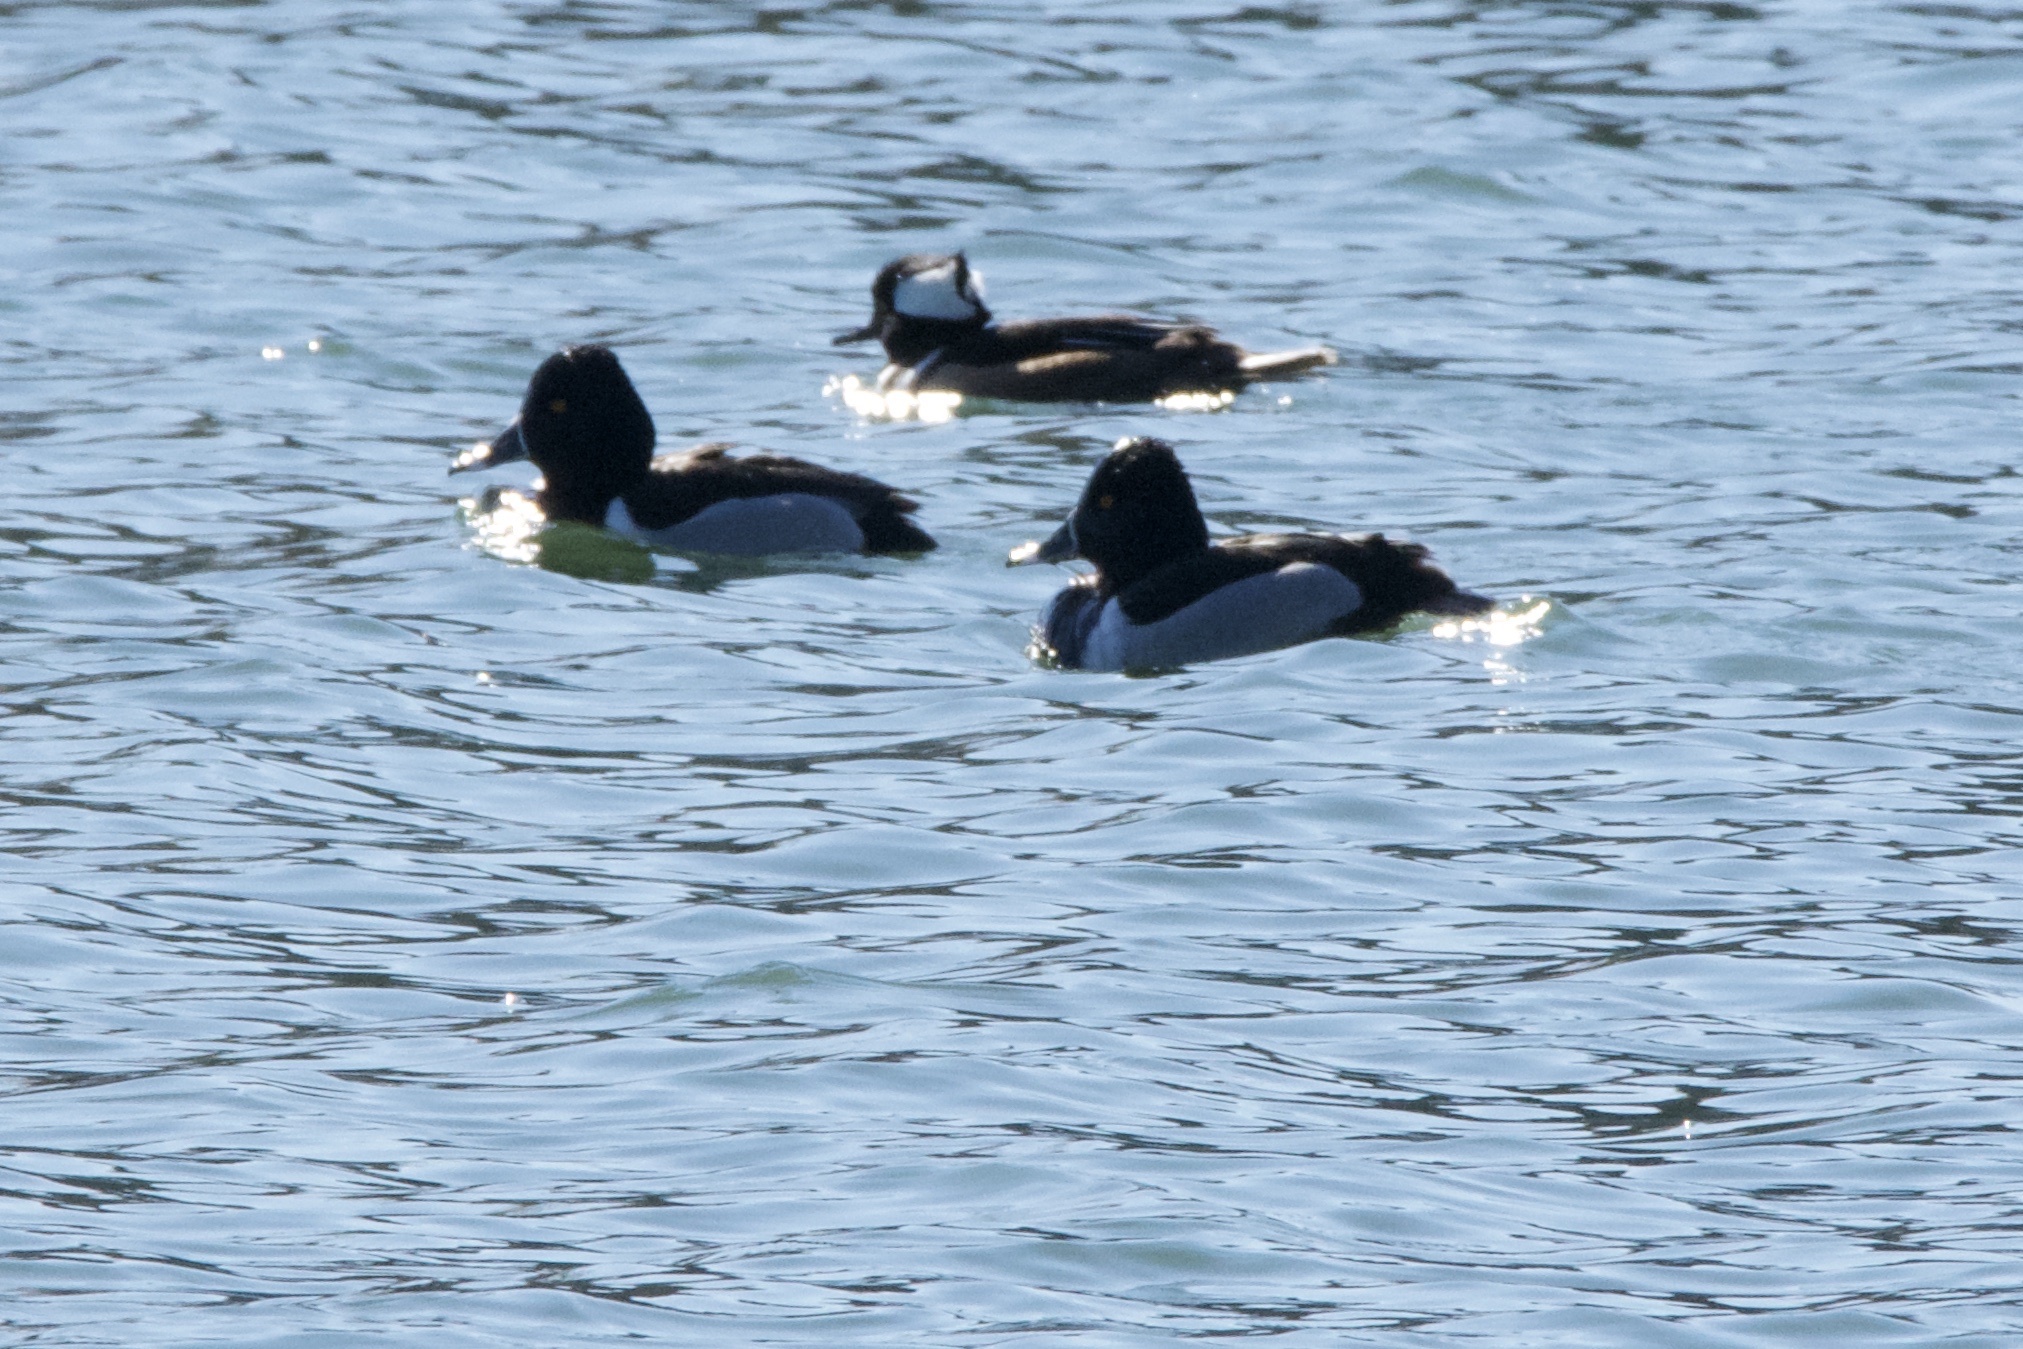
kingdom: Animalia
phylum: Chordata
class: Aves
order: Anseriformes
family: Anatidae
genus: Aythya
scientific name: Aythya collaris
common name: Ring-necked duck
